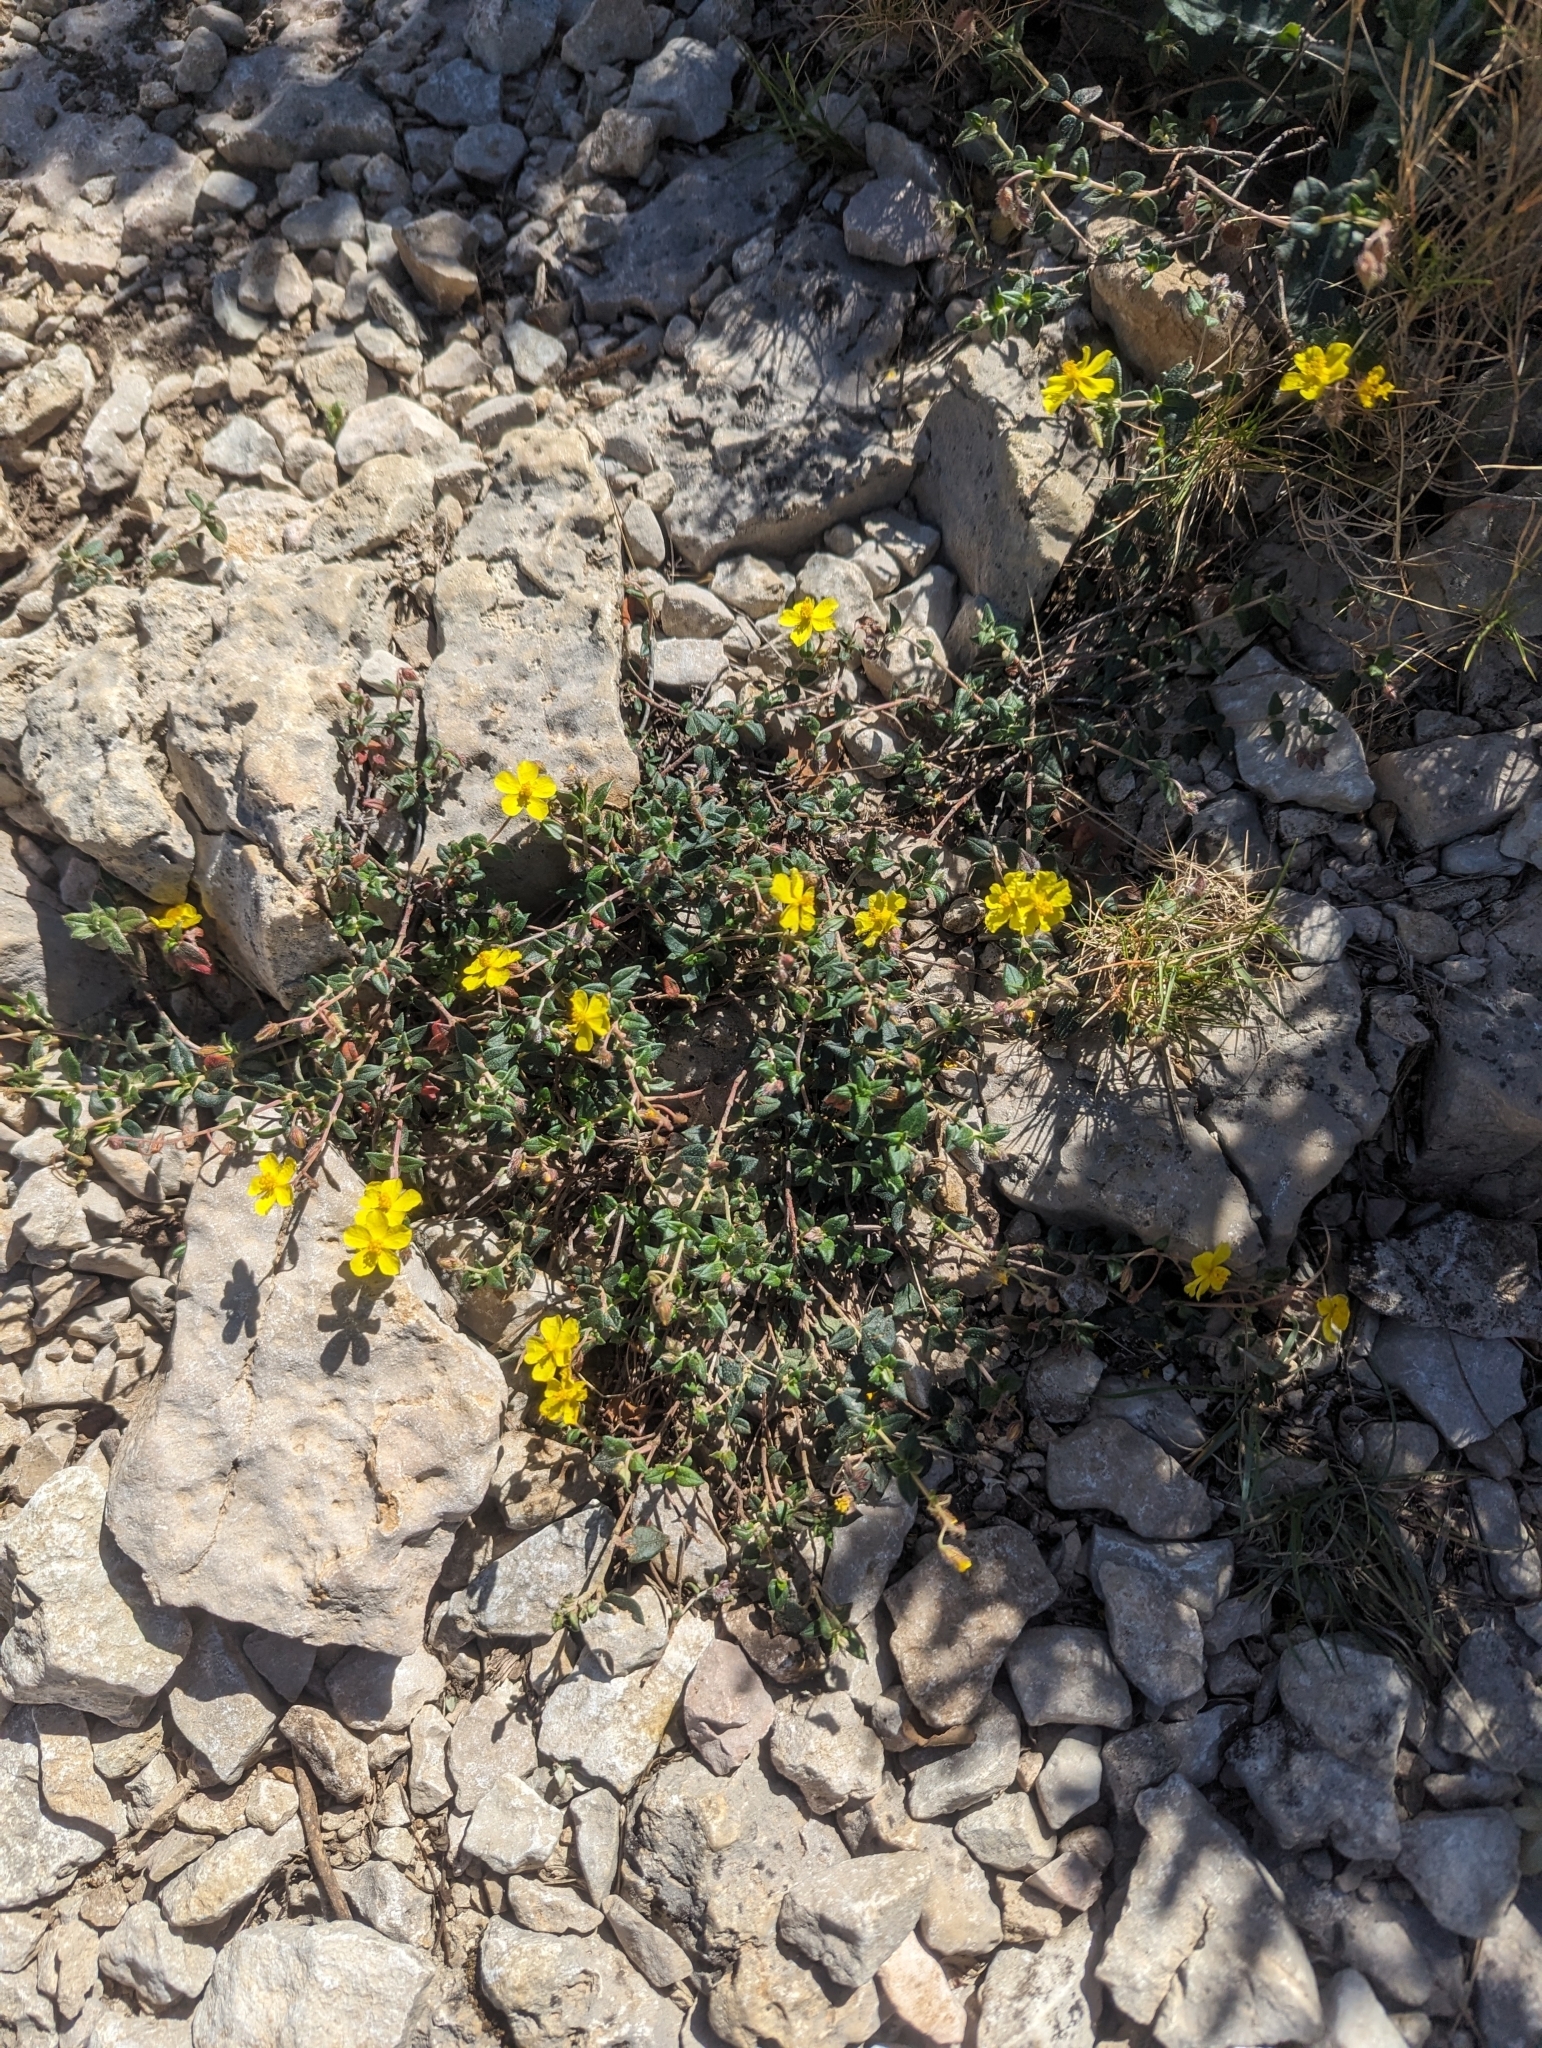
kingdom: Plantae
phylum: Tracheophyta
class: Magnoliopsida
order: Malvales
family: Cistaceae
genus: Helianthemum
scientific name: Helianthemum marifolium
